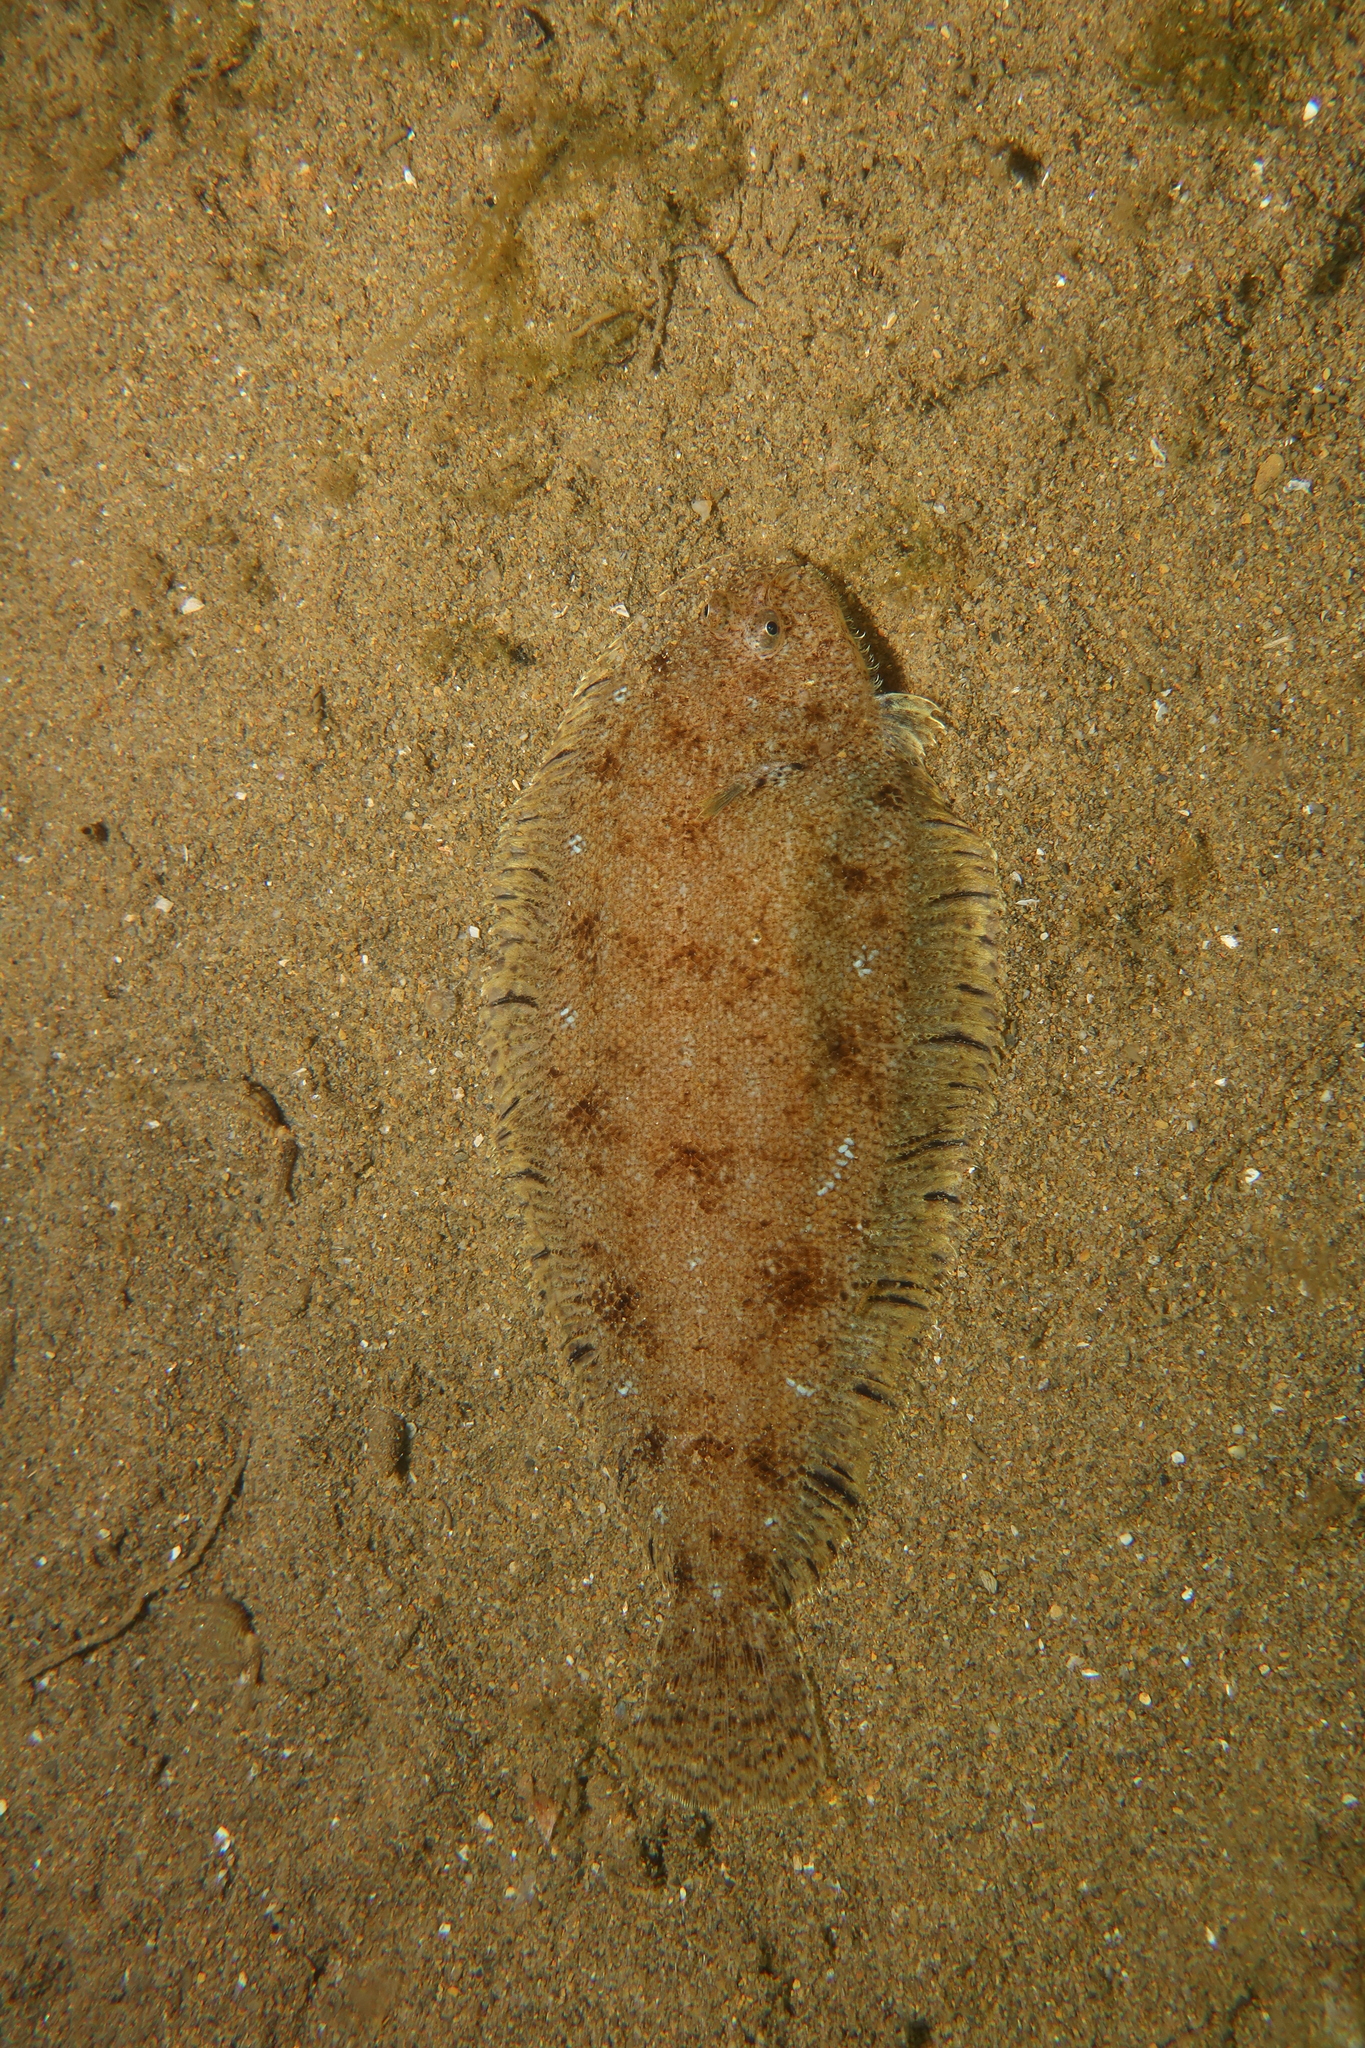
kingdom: Animalia
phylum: Chordata
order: Pleuronectiformes
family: Soleidae
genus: Buglossidium
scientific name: Buglossidium luteum
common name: Solenette
